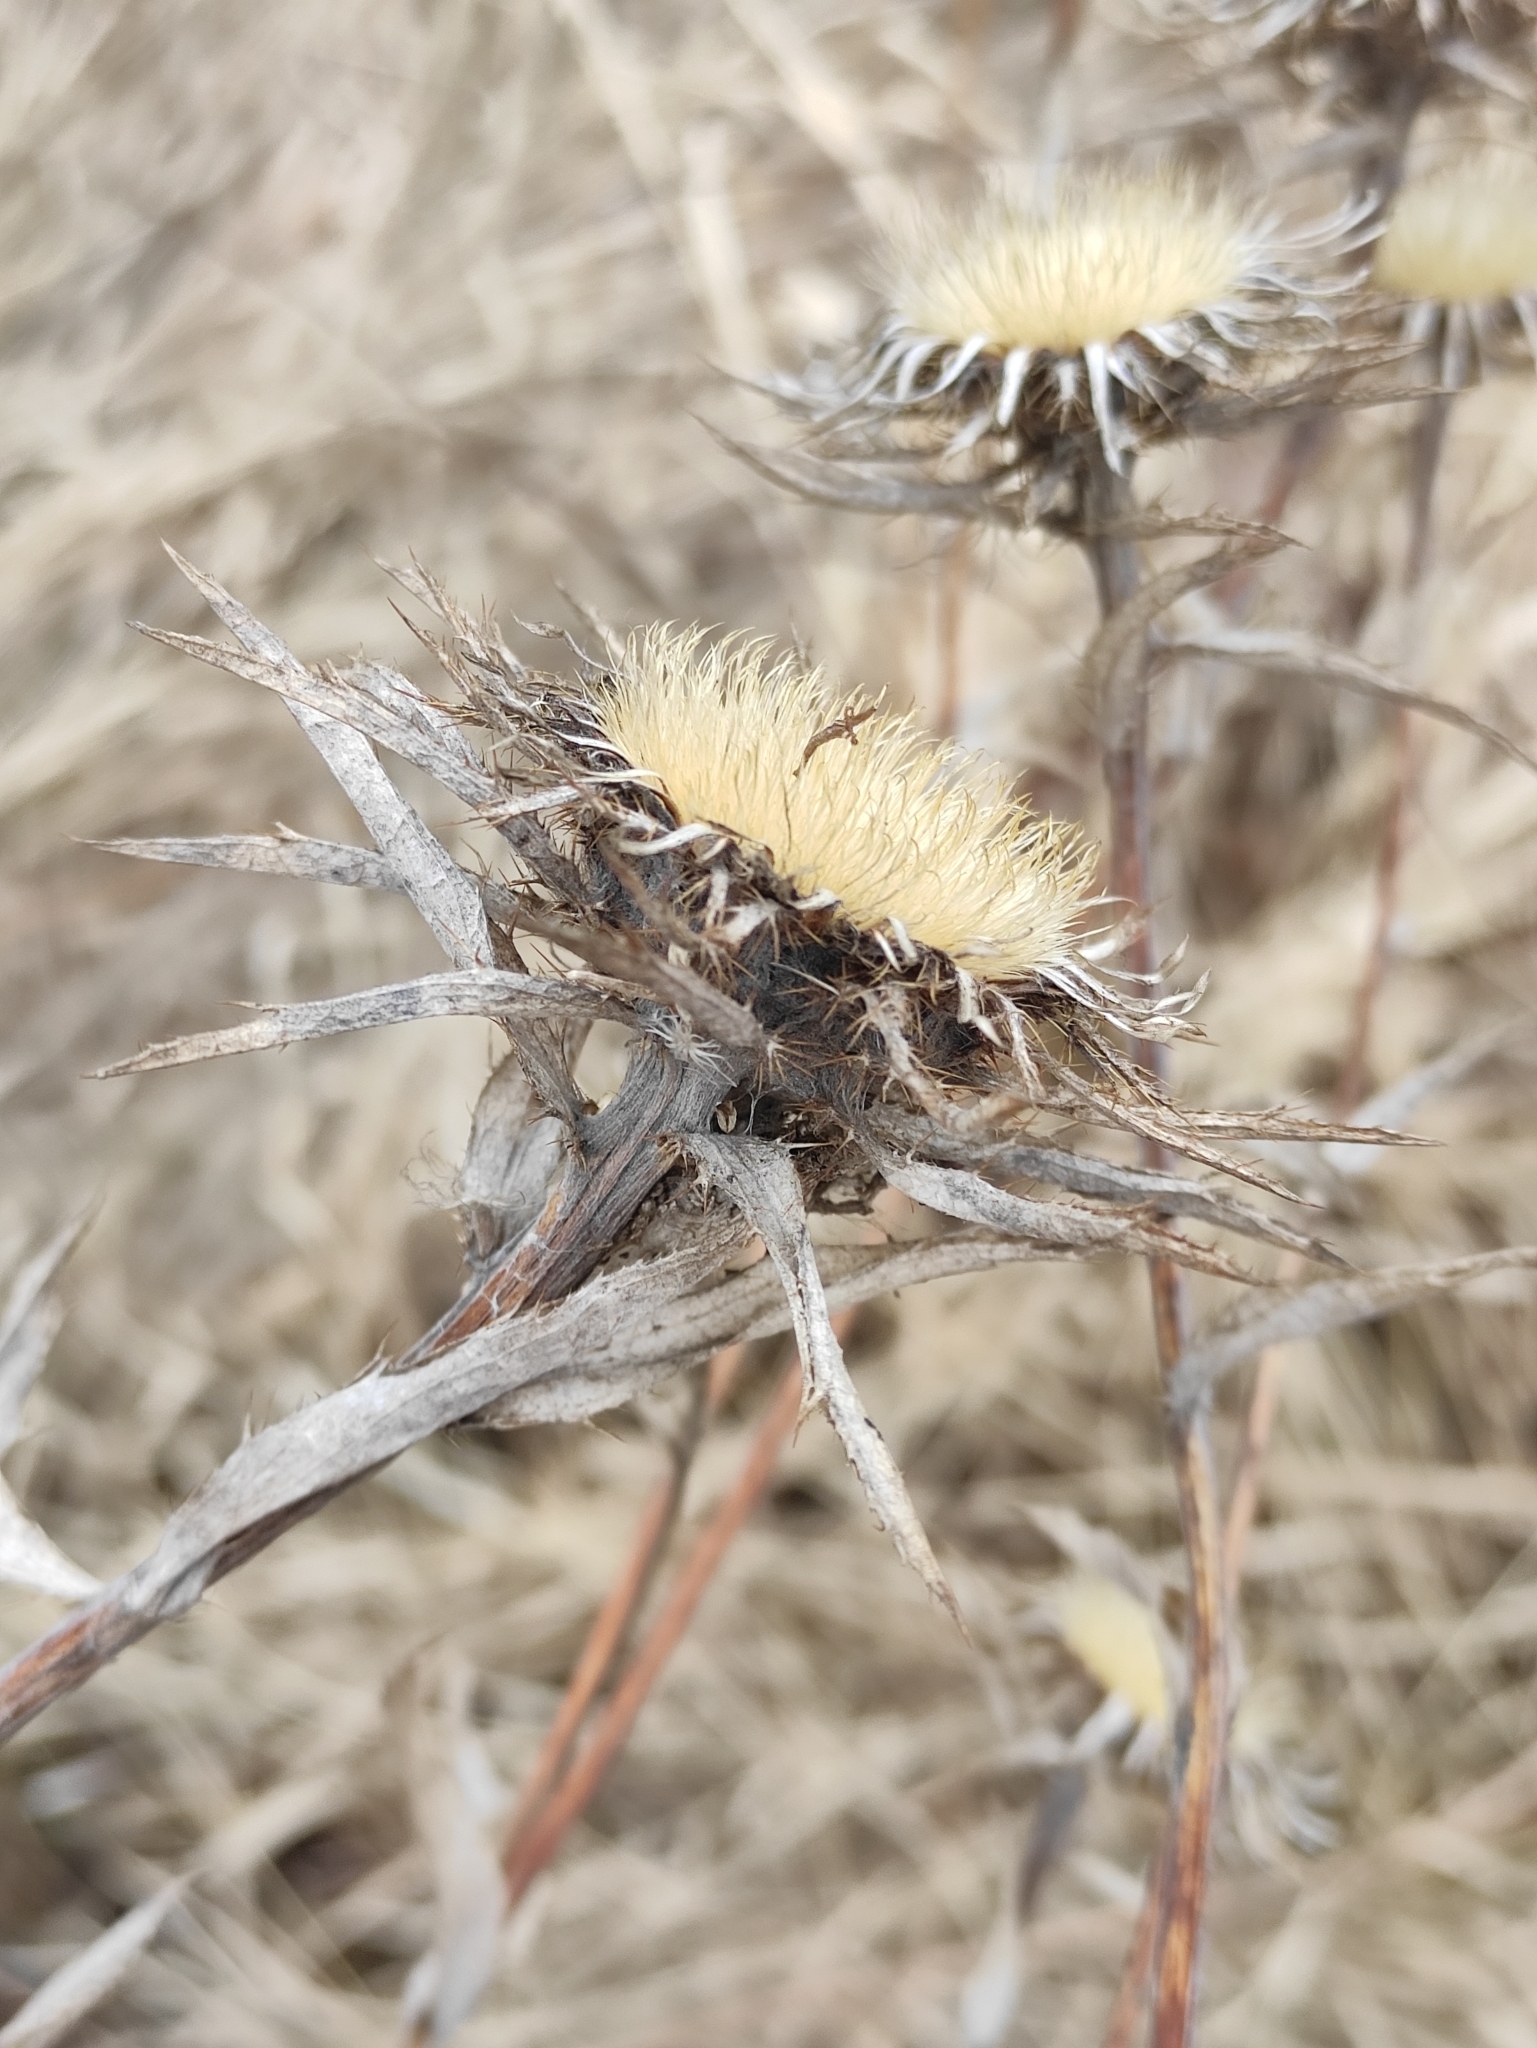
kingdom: Plantae
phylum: Tracheophyta
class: Magnoliopsida
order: Asterales
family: Asteraceae
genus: Carlina
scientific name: Carlina biebersteinii
